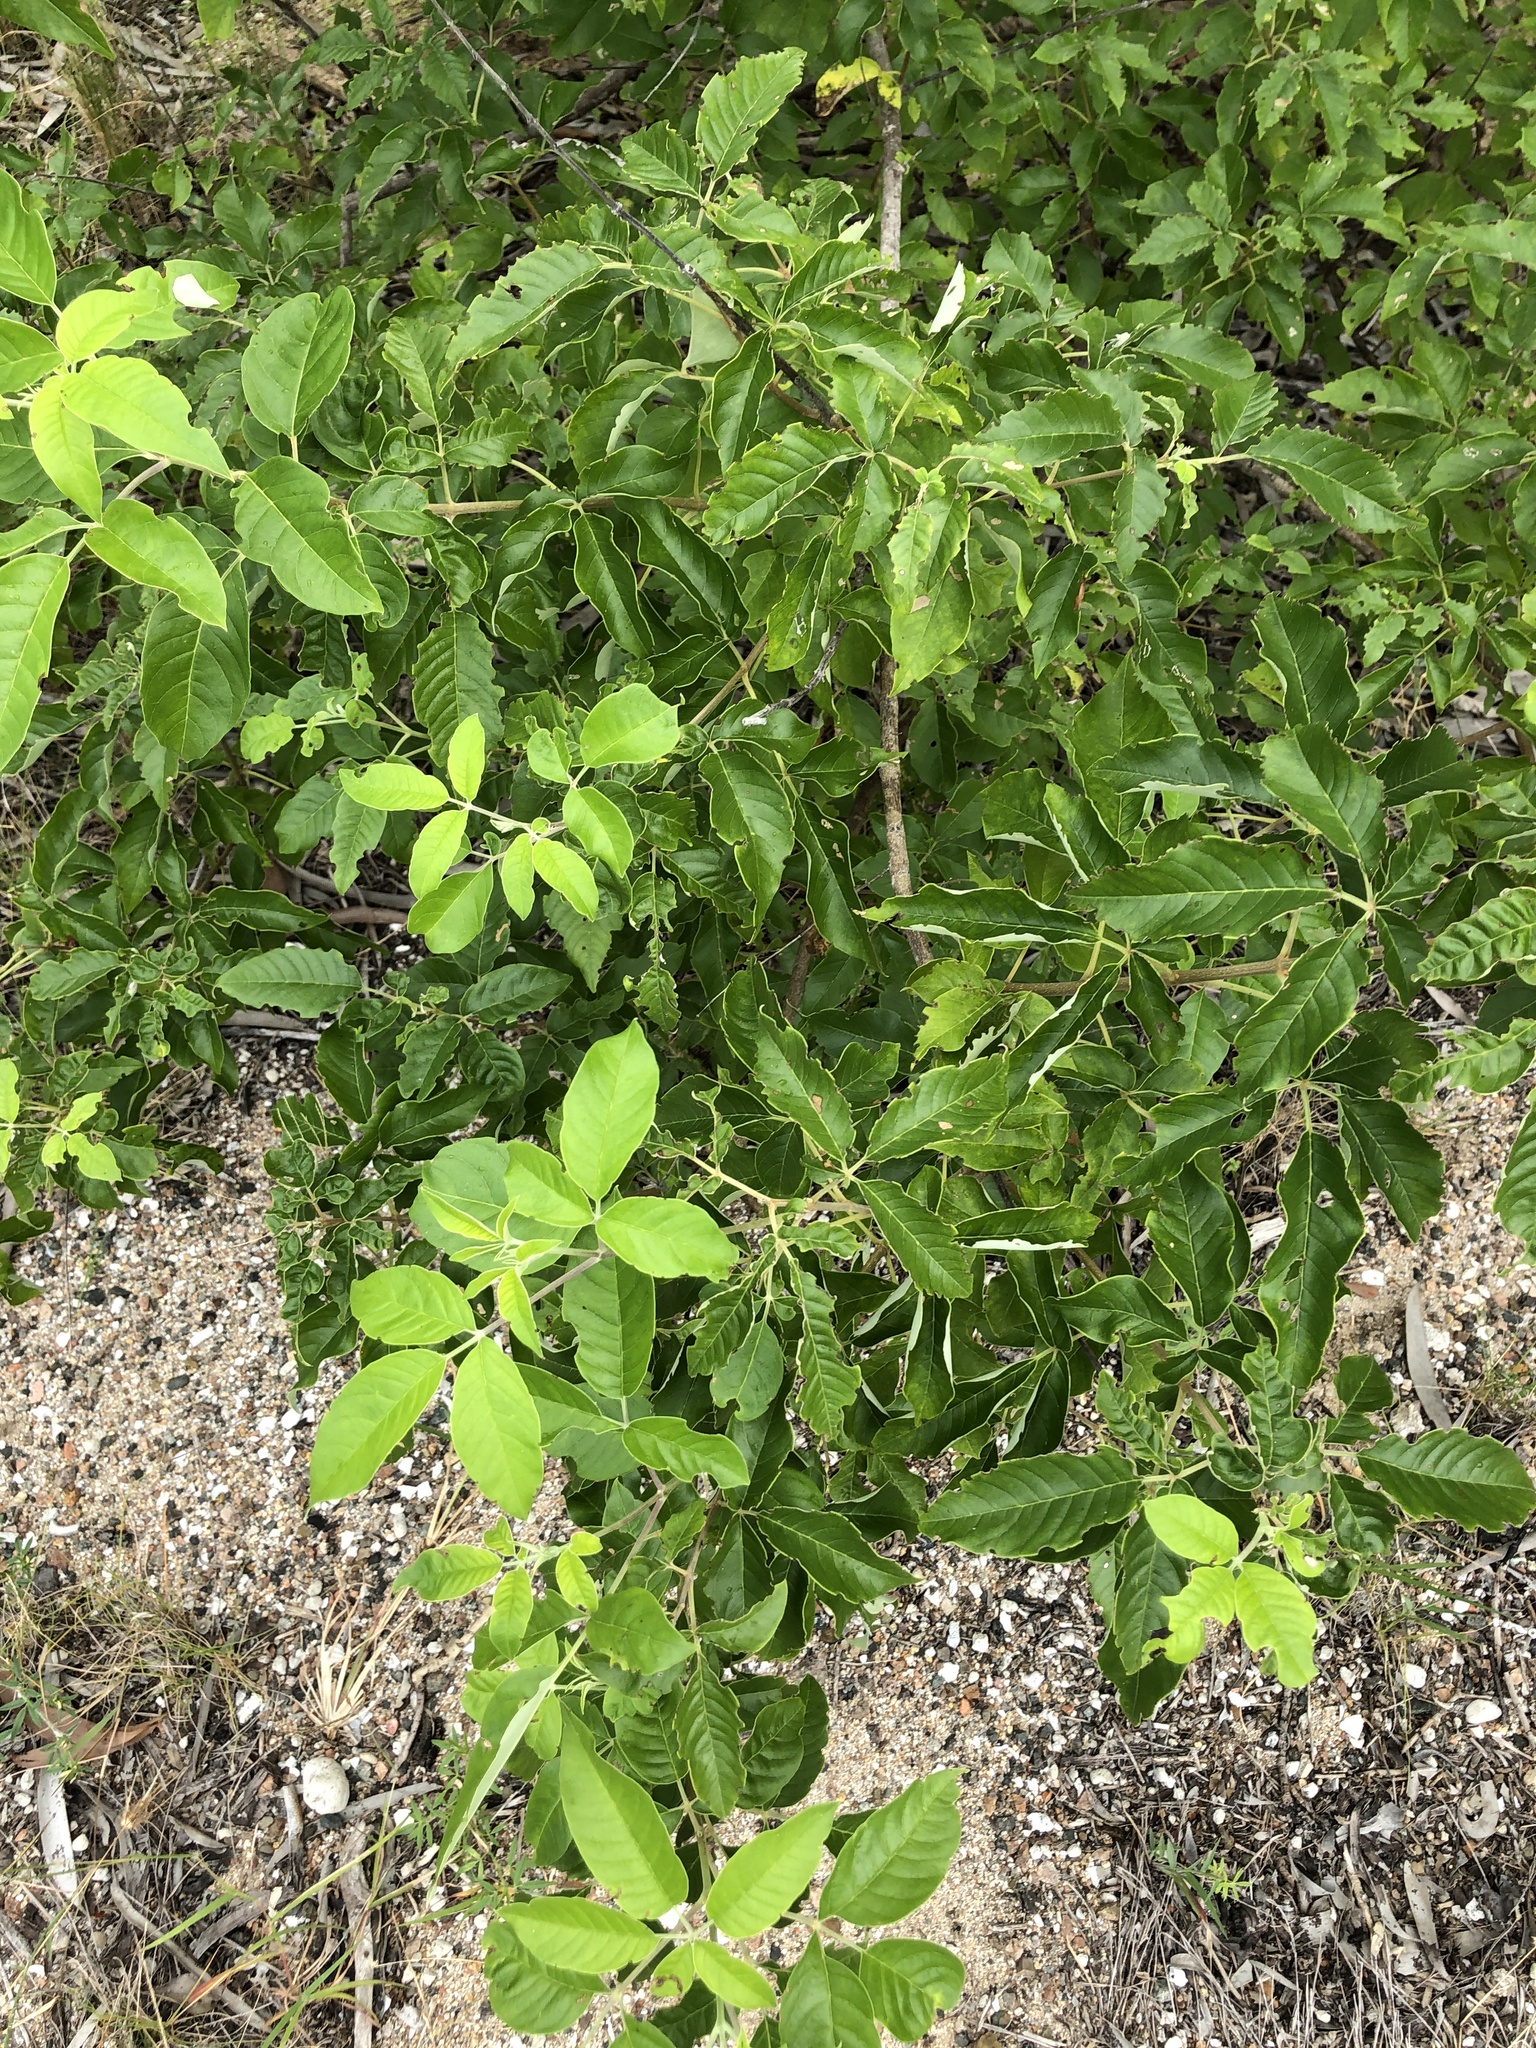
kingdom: Plantae
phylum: Tracheophyta
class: Magnoliopsida
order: Lamiales
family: Lamiaceae
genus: Vitex
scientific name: Vitex trifolia
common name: Simpleleaf chastetree
